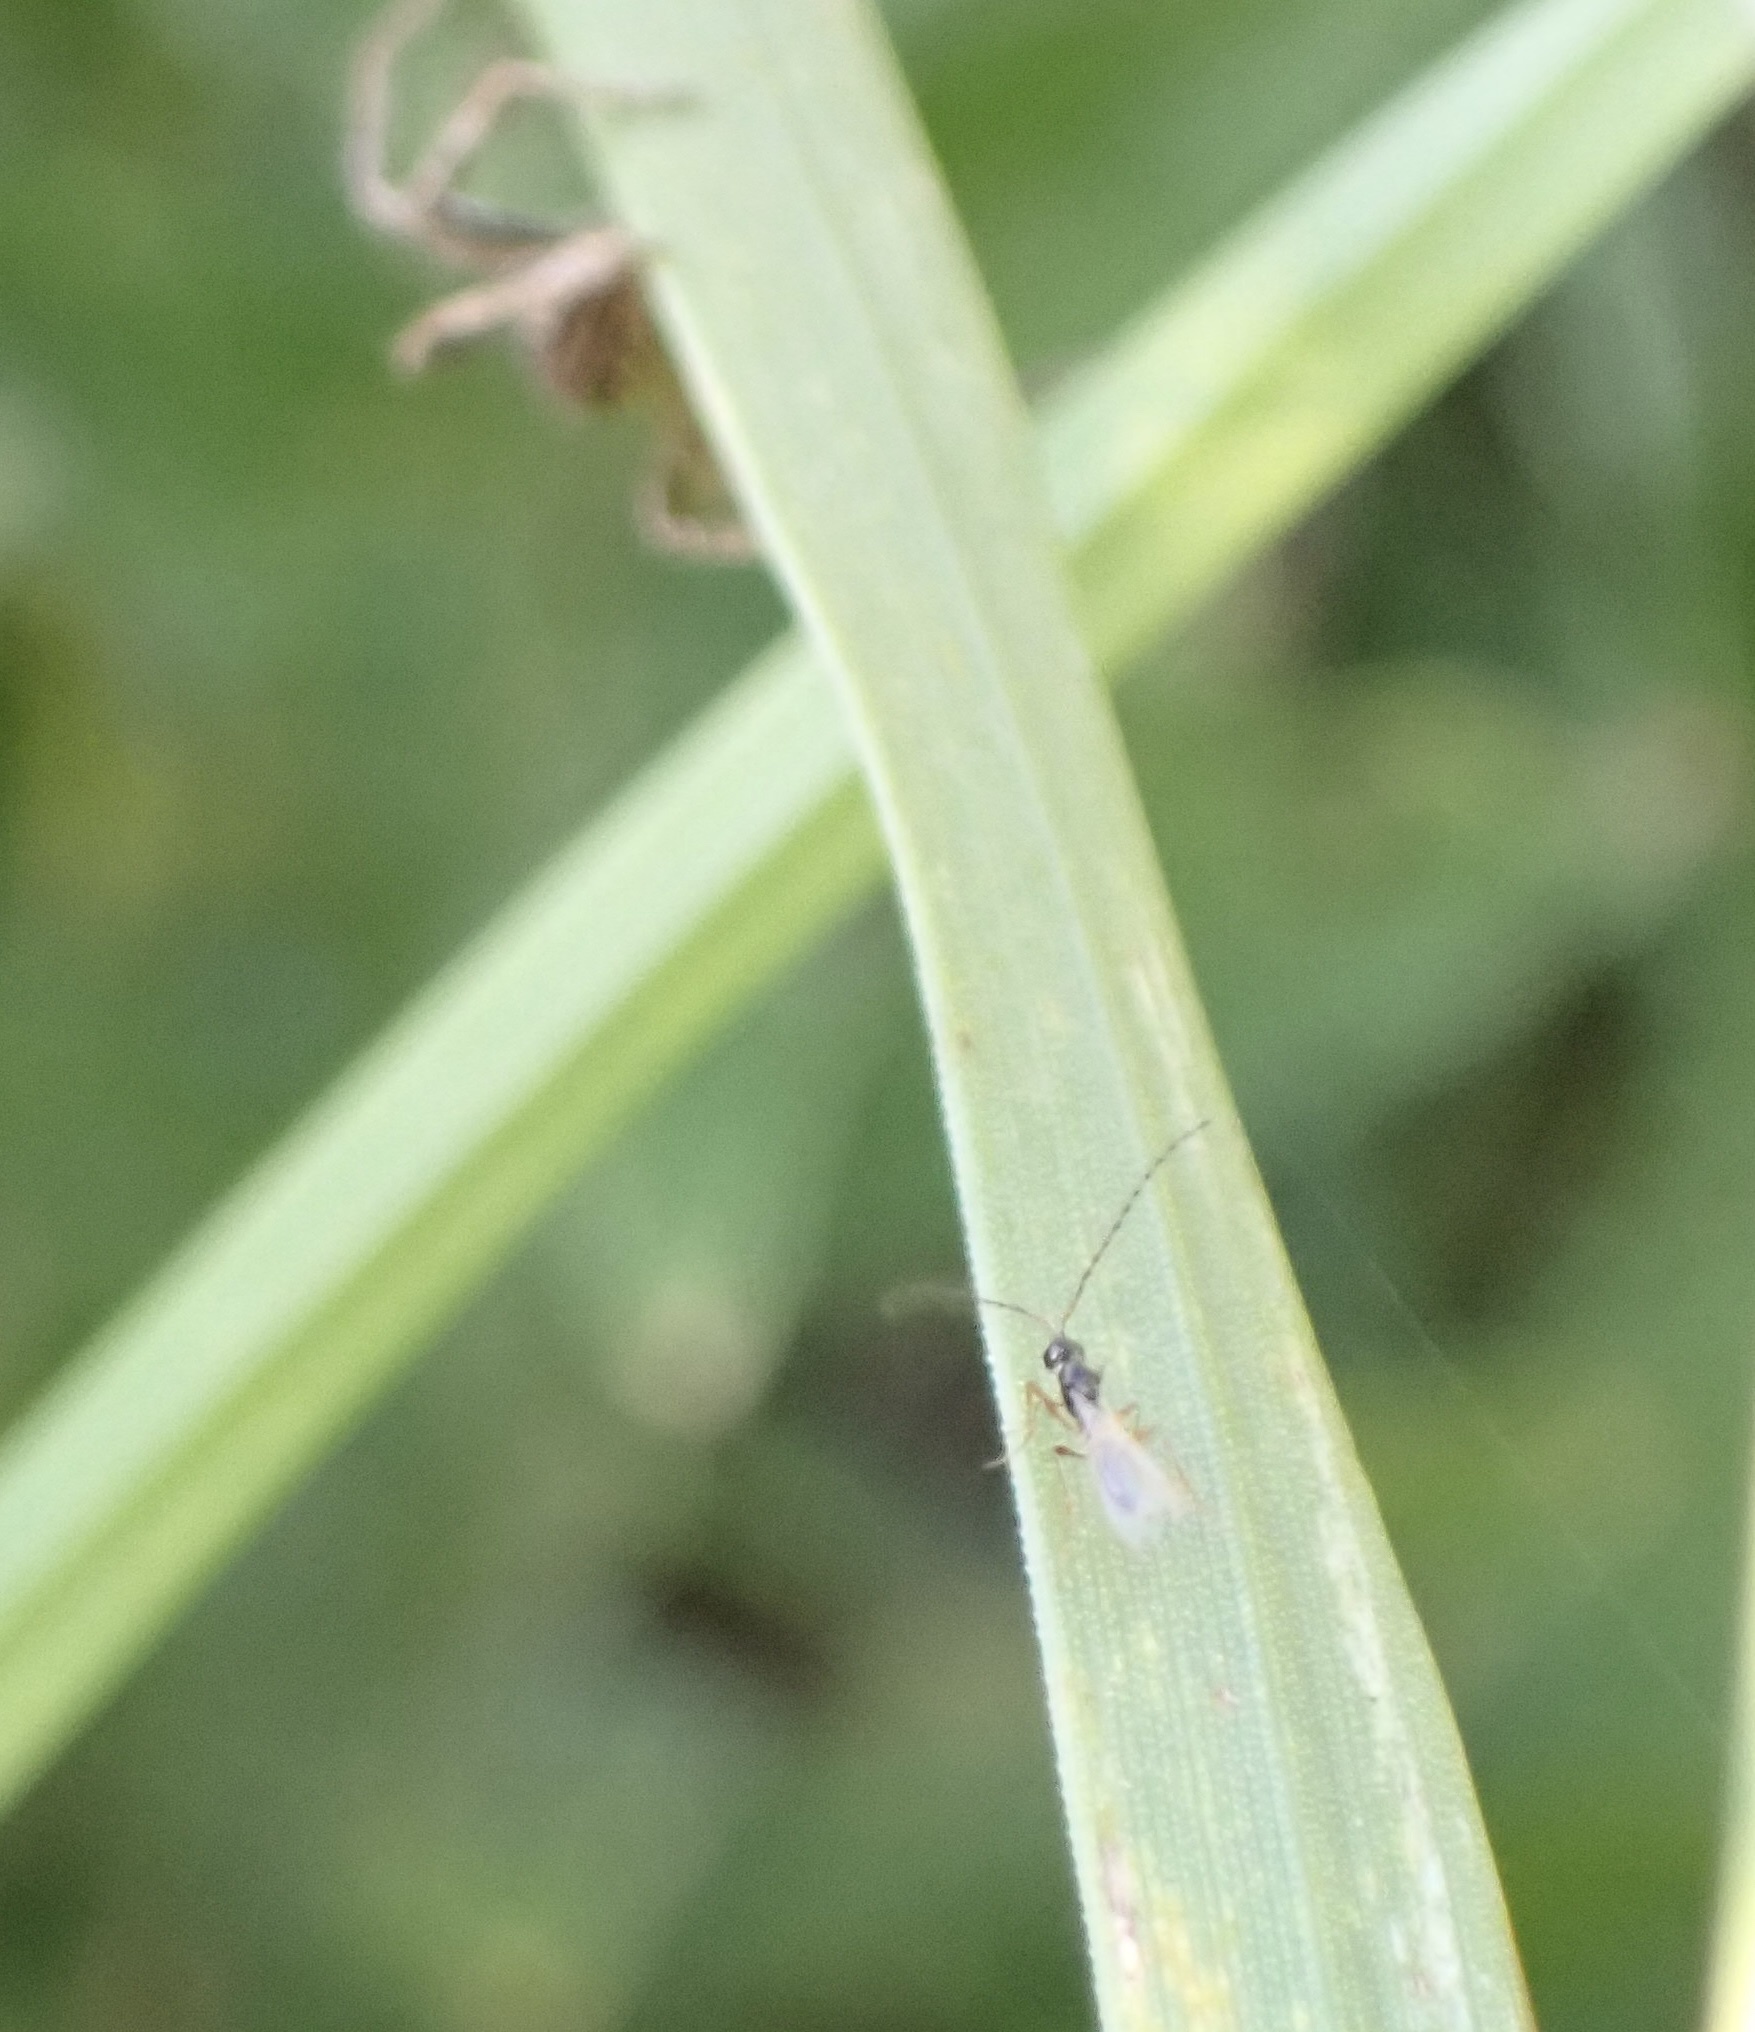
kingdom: Animalia
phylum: Arthropoda
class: Arachnida
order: Araneae
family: Pisauridae
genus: Pisaura
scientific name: Pisaura mirabilis
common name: Tent spider
